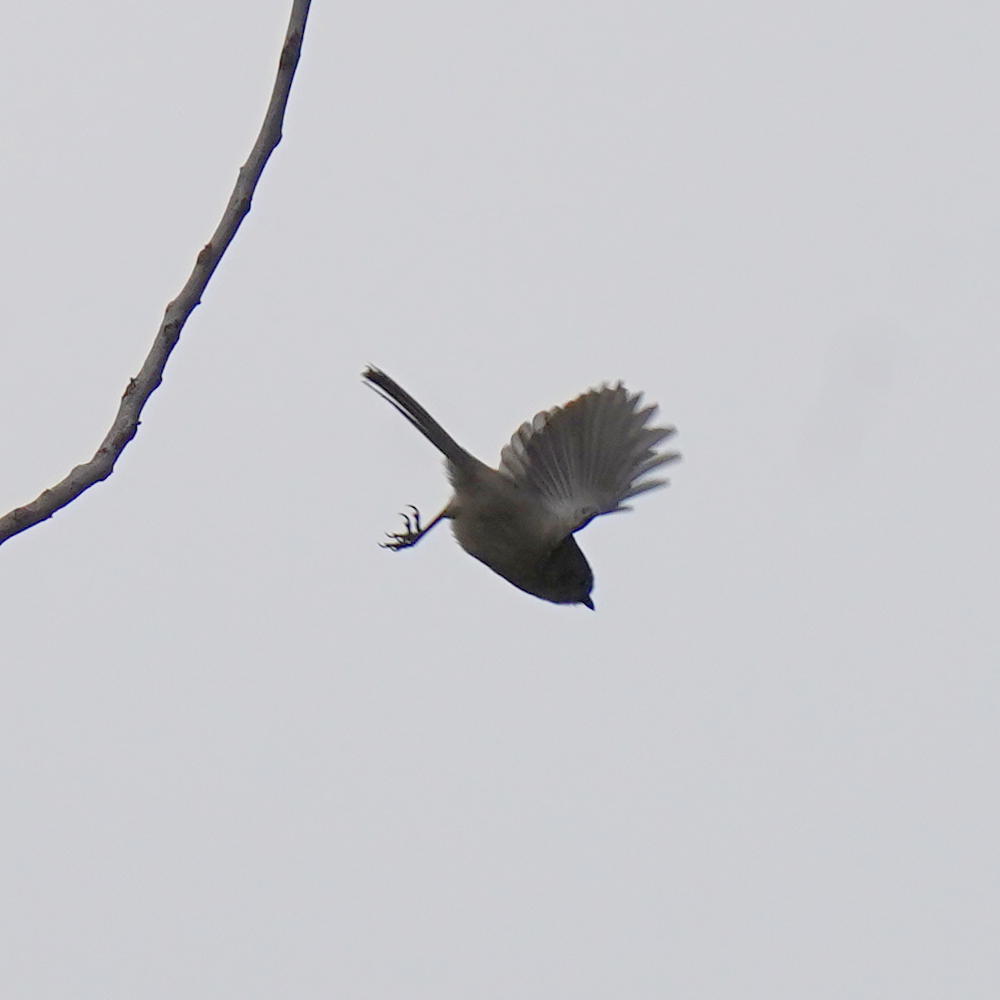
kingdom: Animalia
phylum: Chordata
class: Aves
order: Passeriformes
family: Aegithalidae
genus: Psaltriparus
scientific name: Psaltriparus minimus
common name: American bushtit
